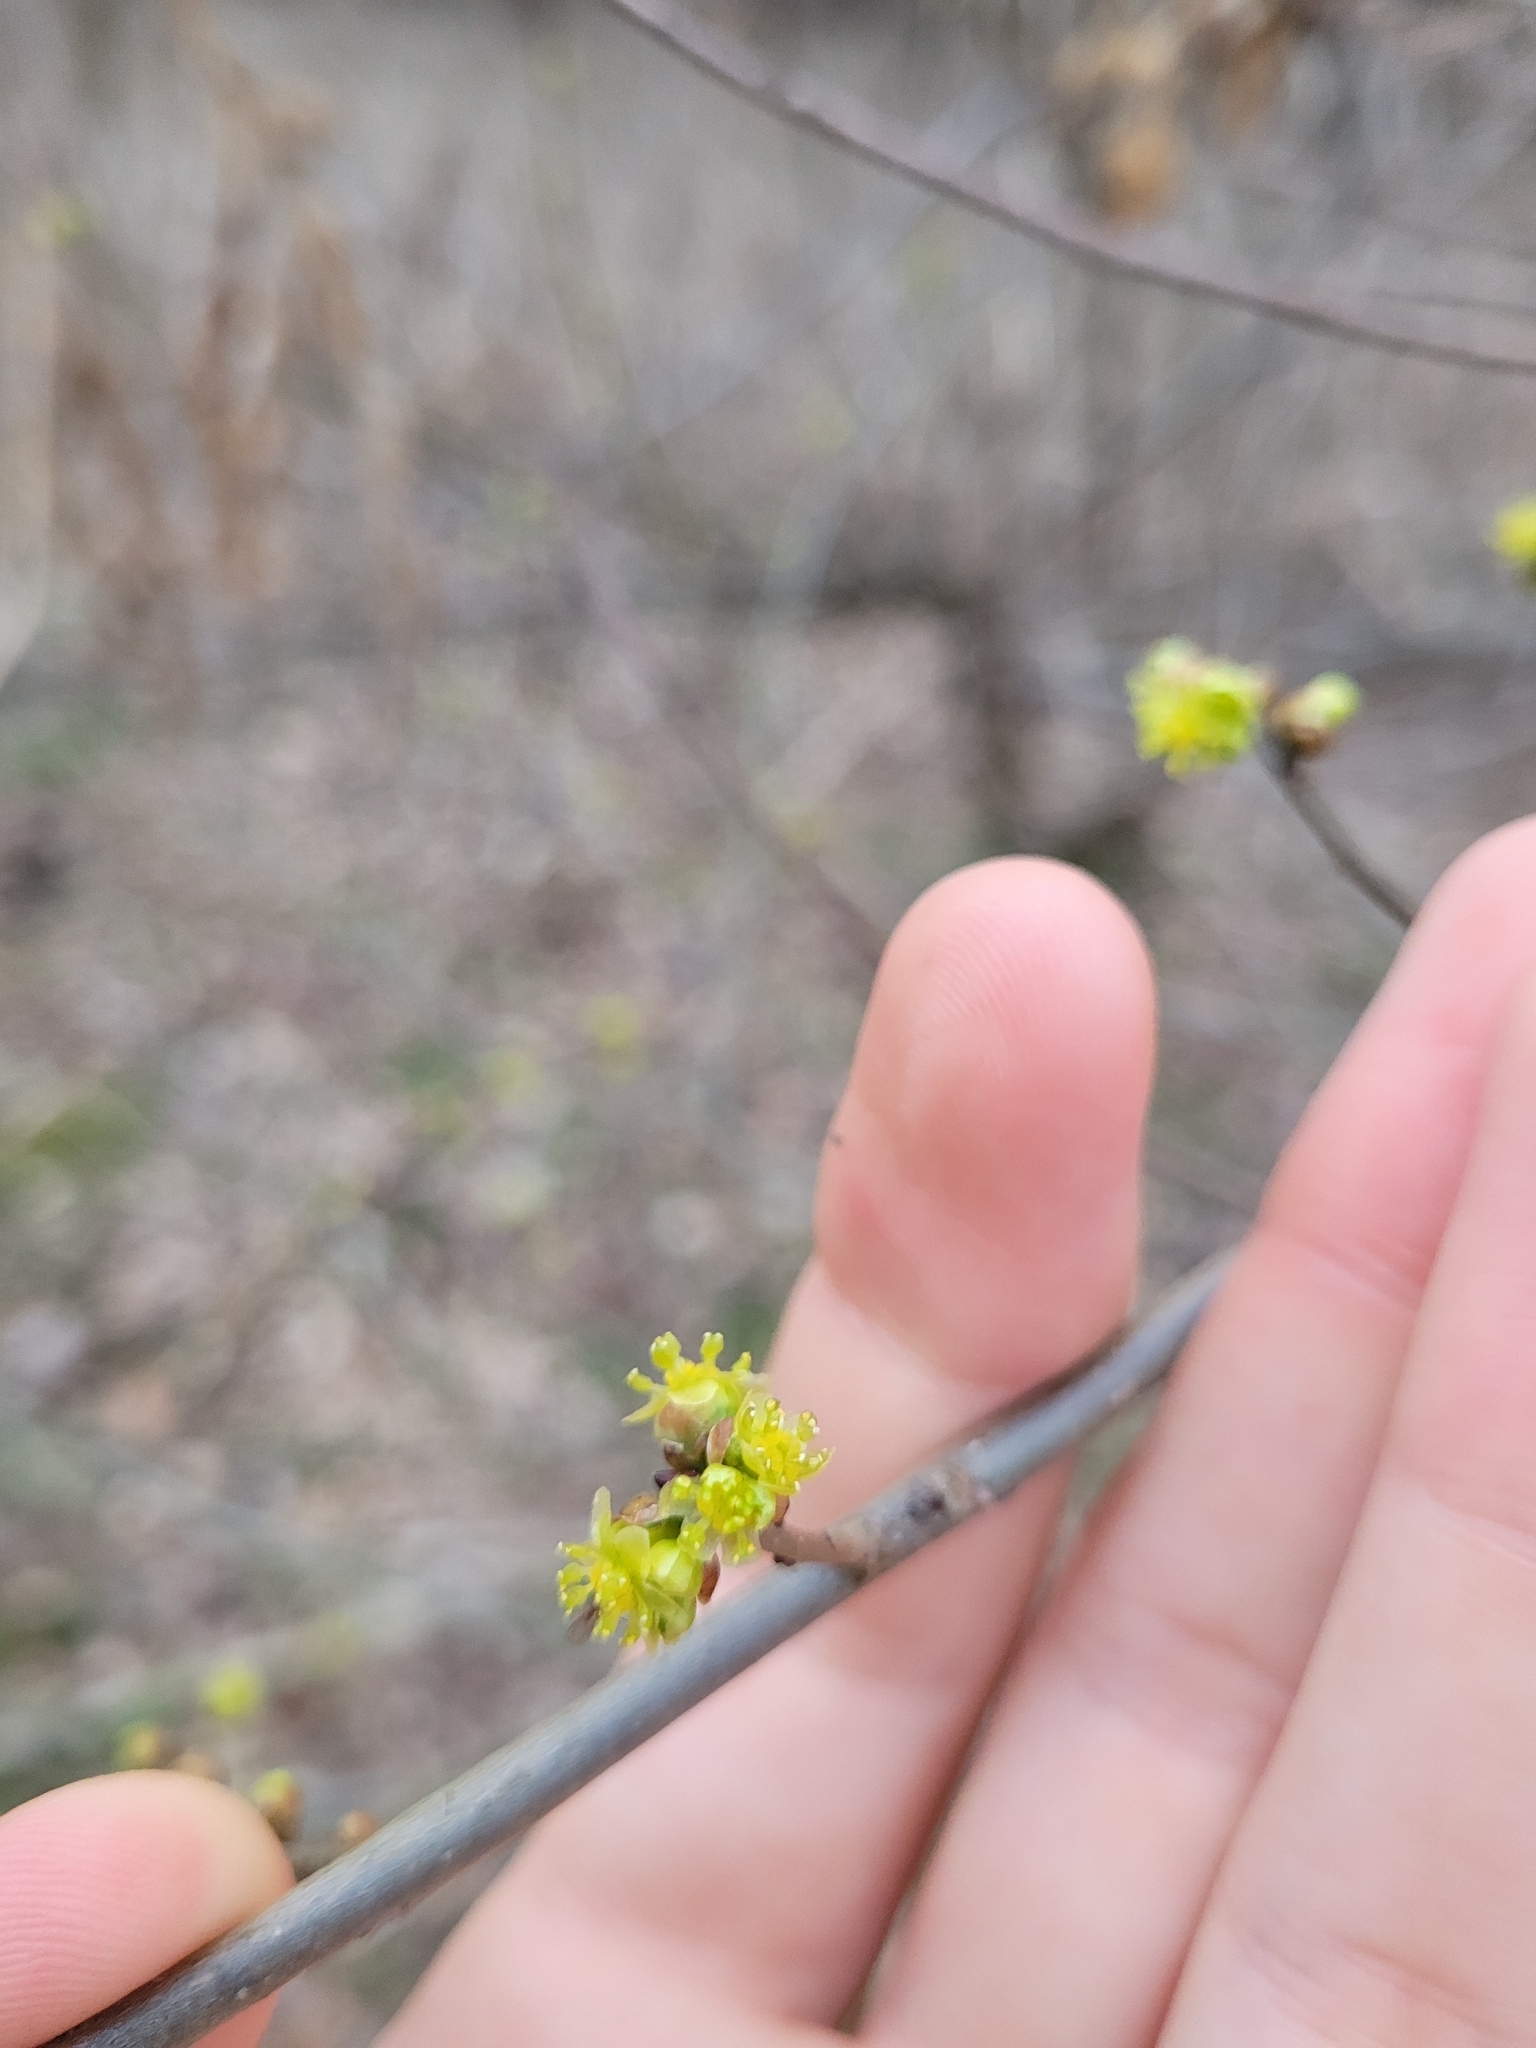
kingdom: Plantae
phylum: Tracheophyta
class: Magnoliopsida
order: Laurales
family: Lauraceae
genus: Lindera
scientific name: Lindera benzoin
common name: Spicebush
